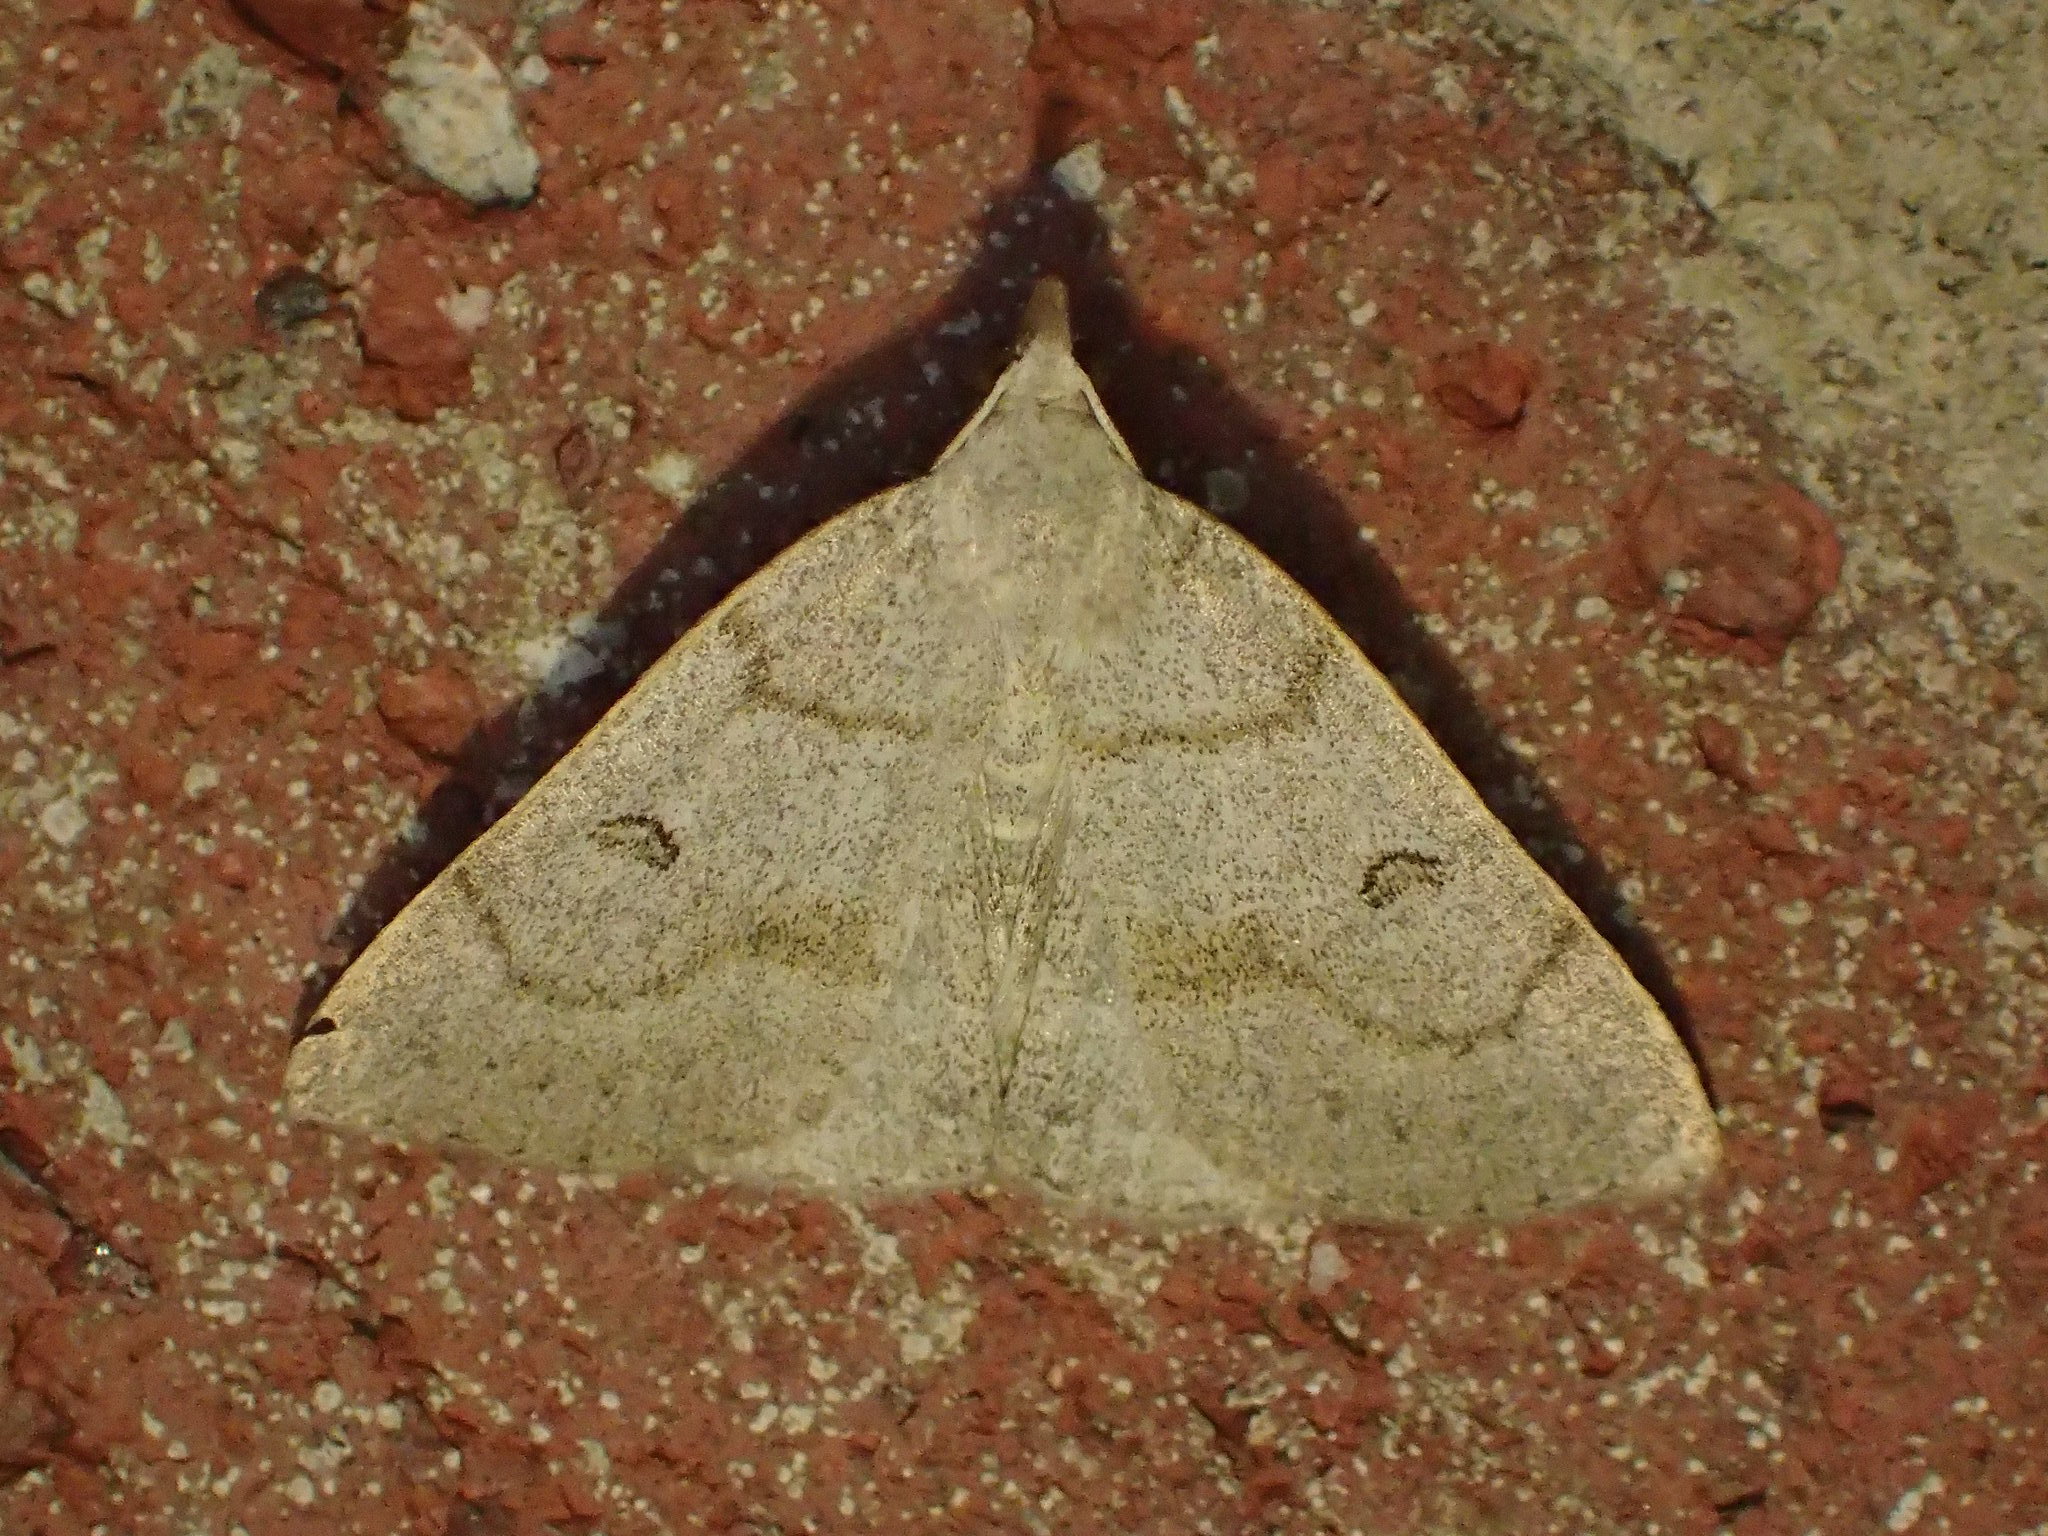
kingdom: Animalia
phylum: Arthropoda
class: Insecta
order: Lepidoptera
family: Erebidae
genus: Macrochilo
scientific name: Macrochilo morbidalis
